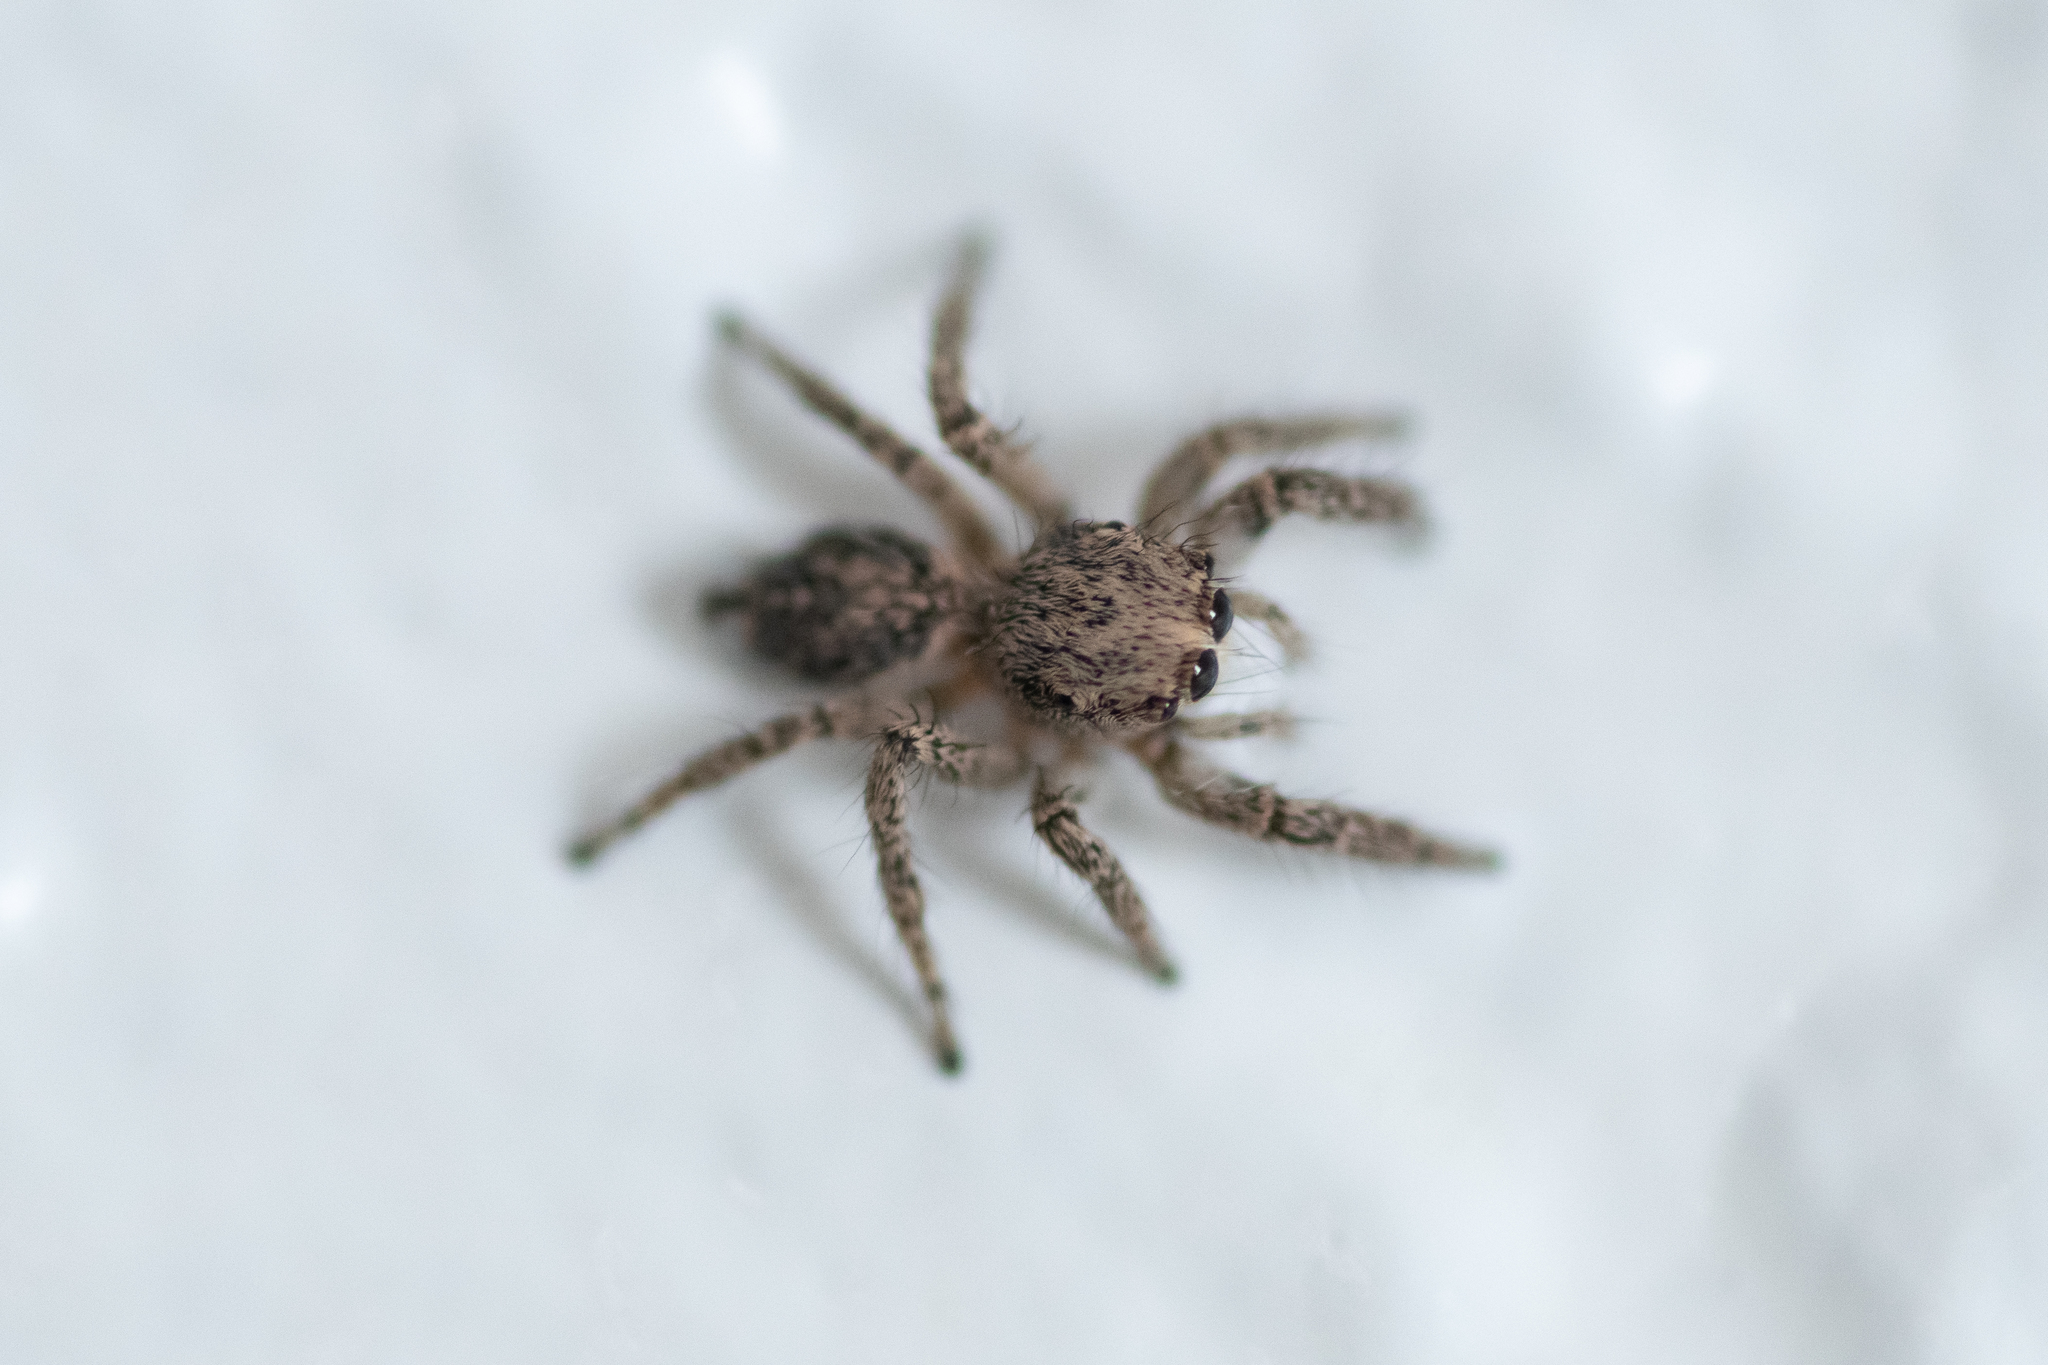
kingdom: Animalia
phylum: Arthropoda
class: Arachnida
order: Araneae
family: Salticidae
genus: Habronattus
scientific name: Habronattus hirsutus
